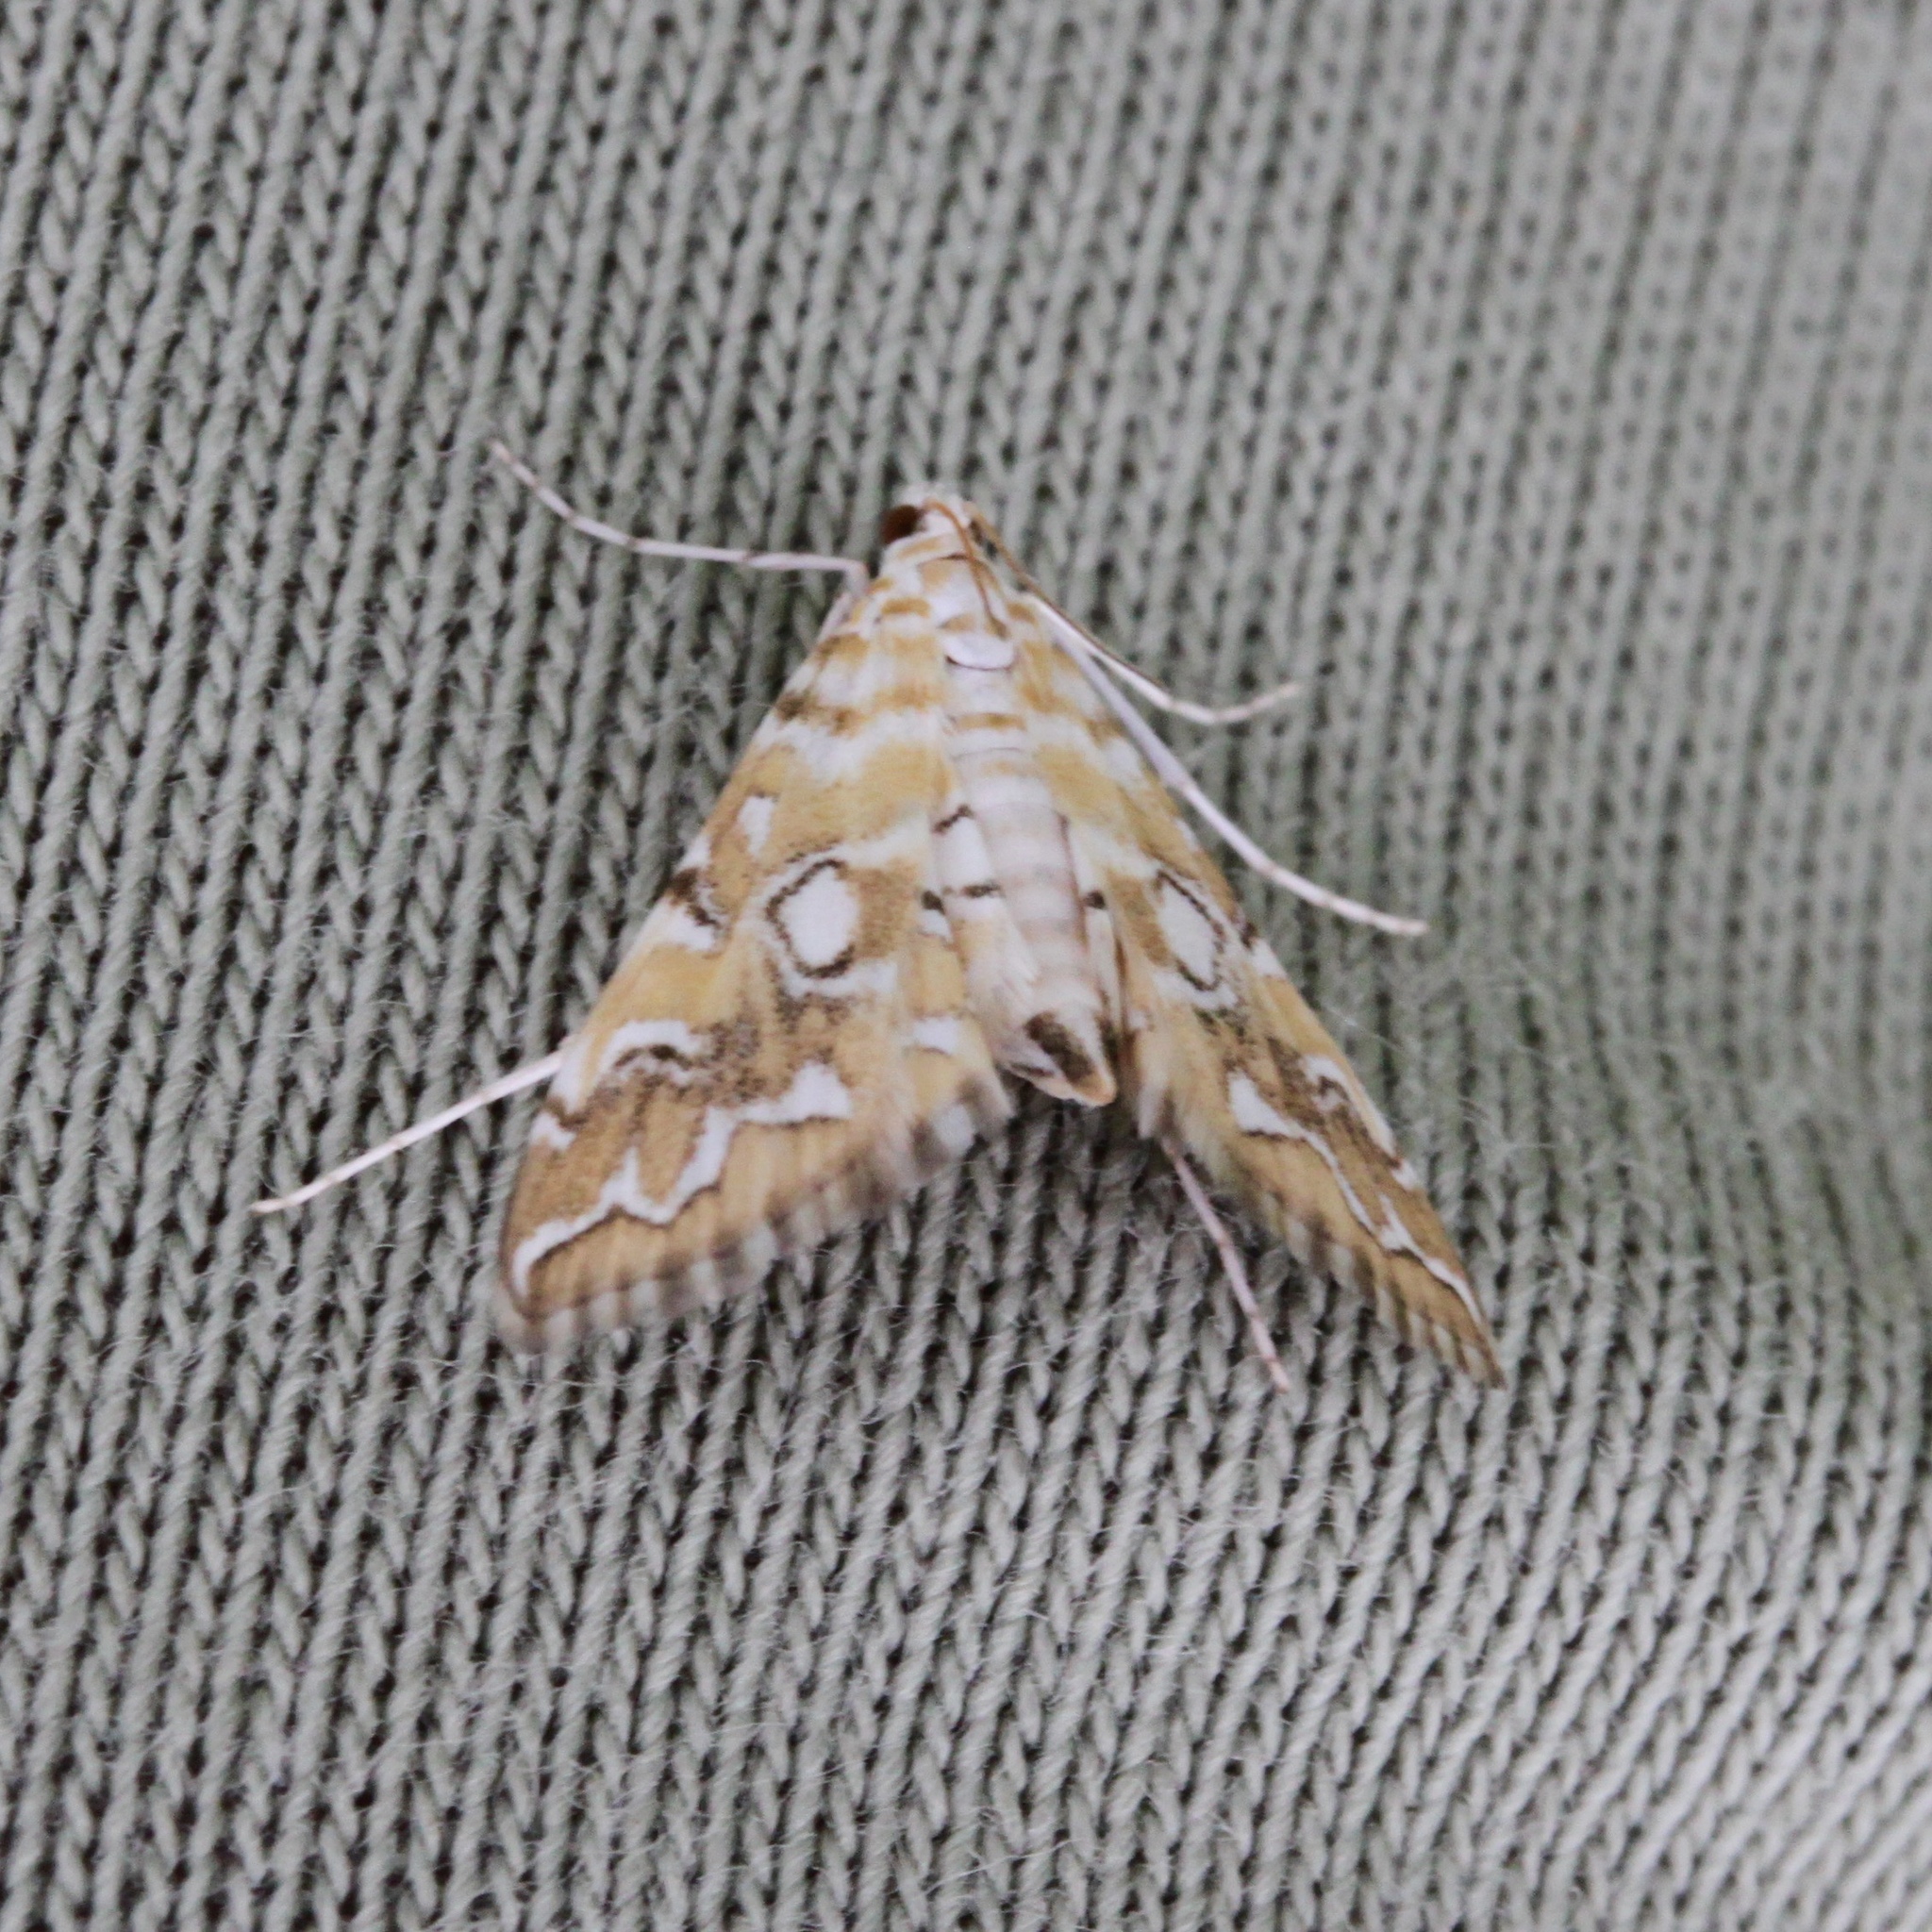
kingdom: Animalia
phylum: Arthropoda
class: Insecta
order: Lepidoptera
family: Crambidae
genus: Elophila
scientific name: Elophila icciusalis
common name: Pondside pyralid moth
